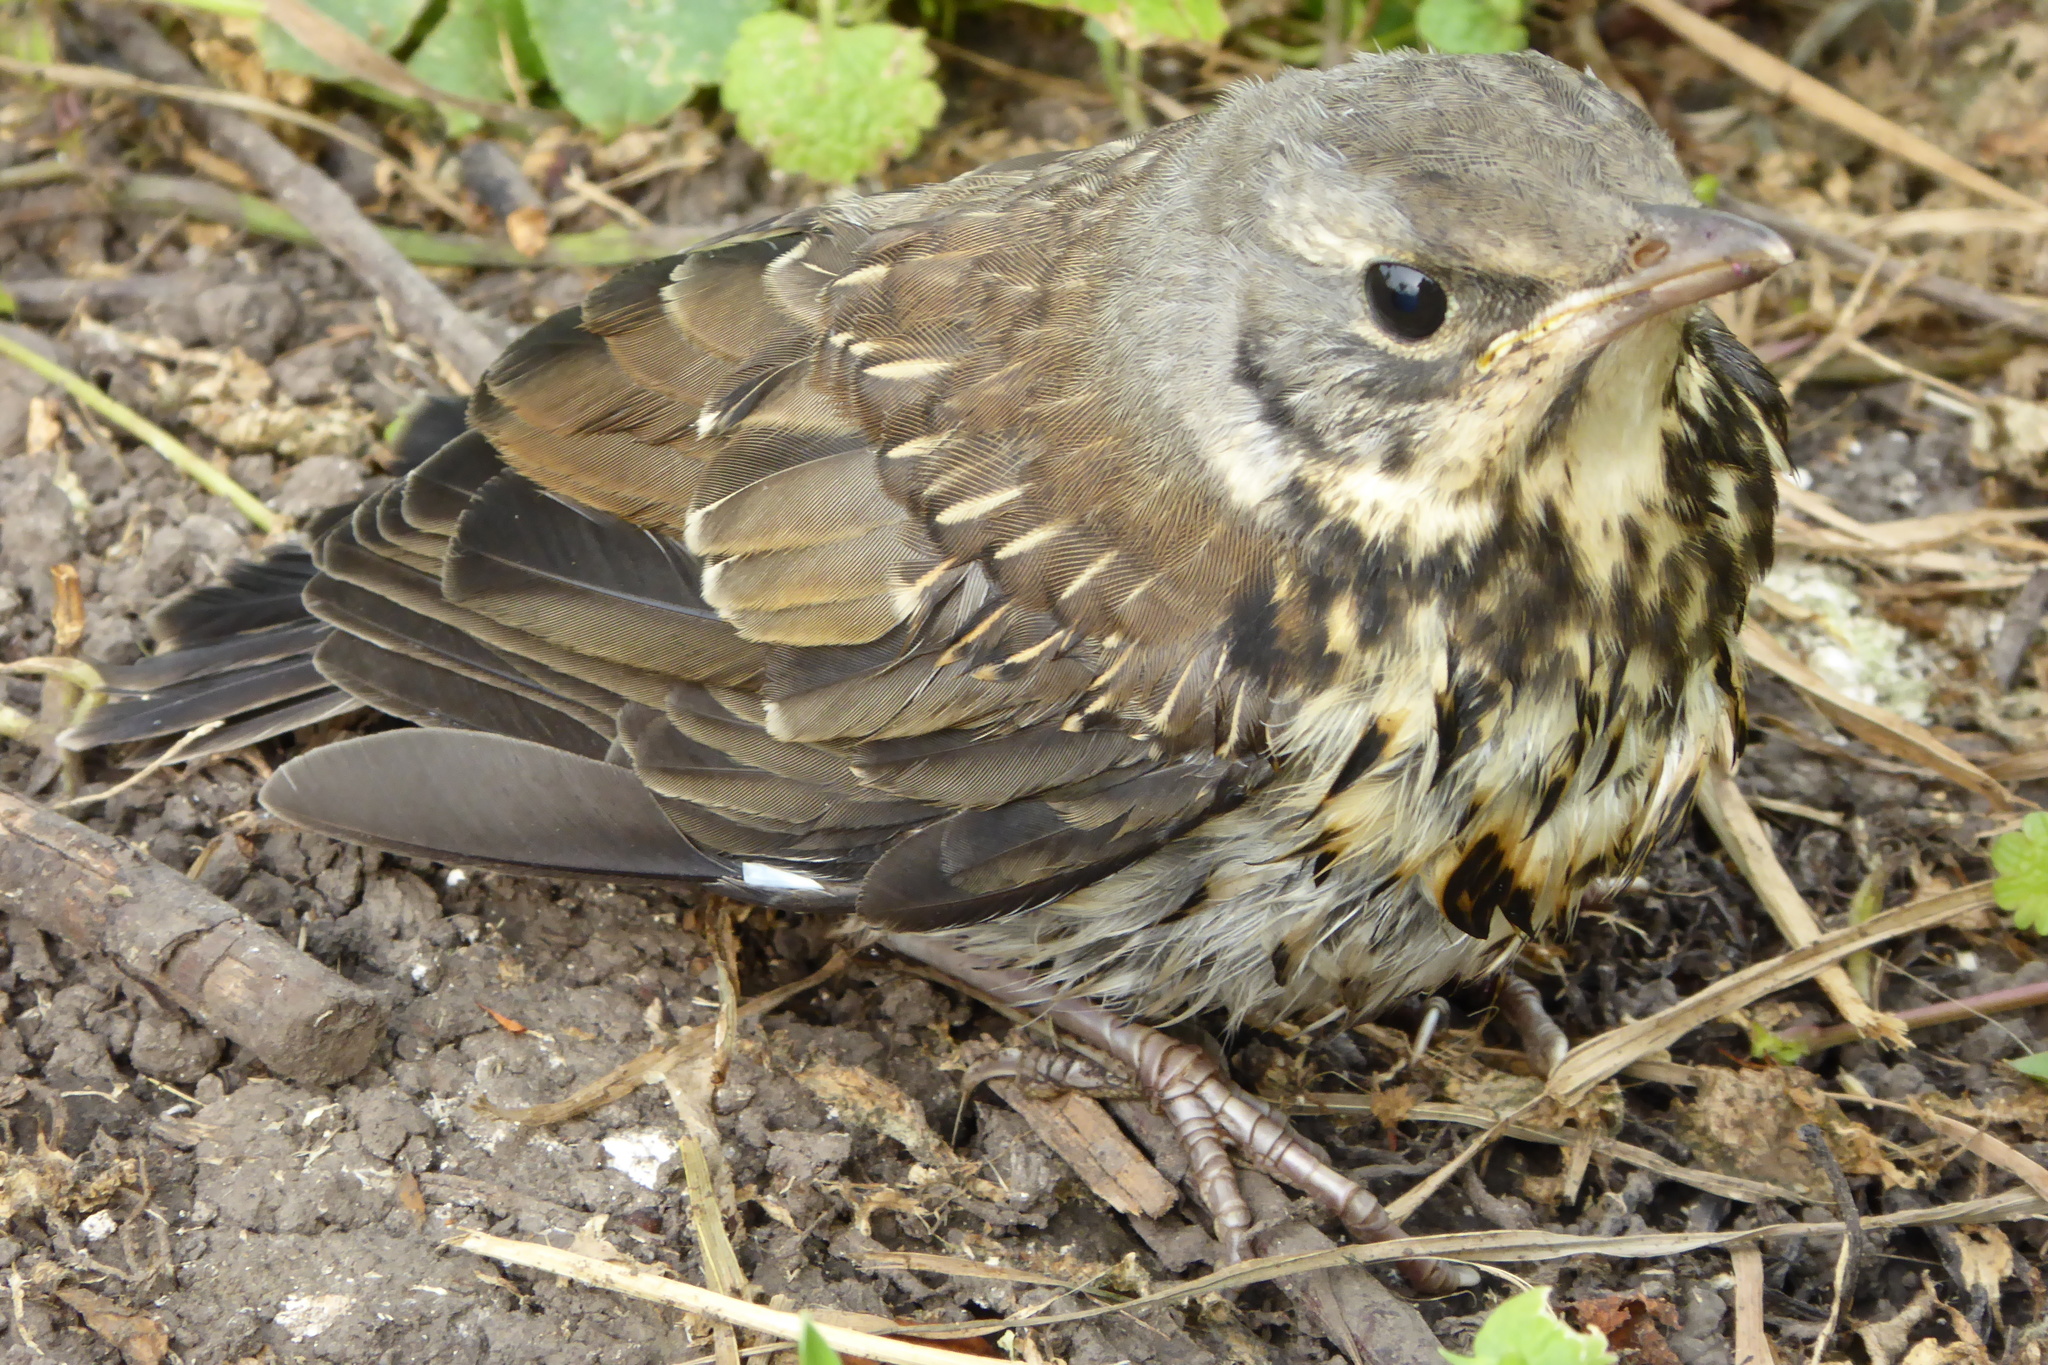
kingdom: Animalia
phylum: Chordata
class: Aves
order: Passeriformes
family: Turdidae
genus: Turdus
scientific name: Turdus pilaris
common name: Fieldfare
